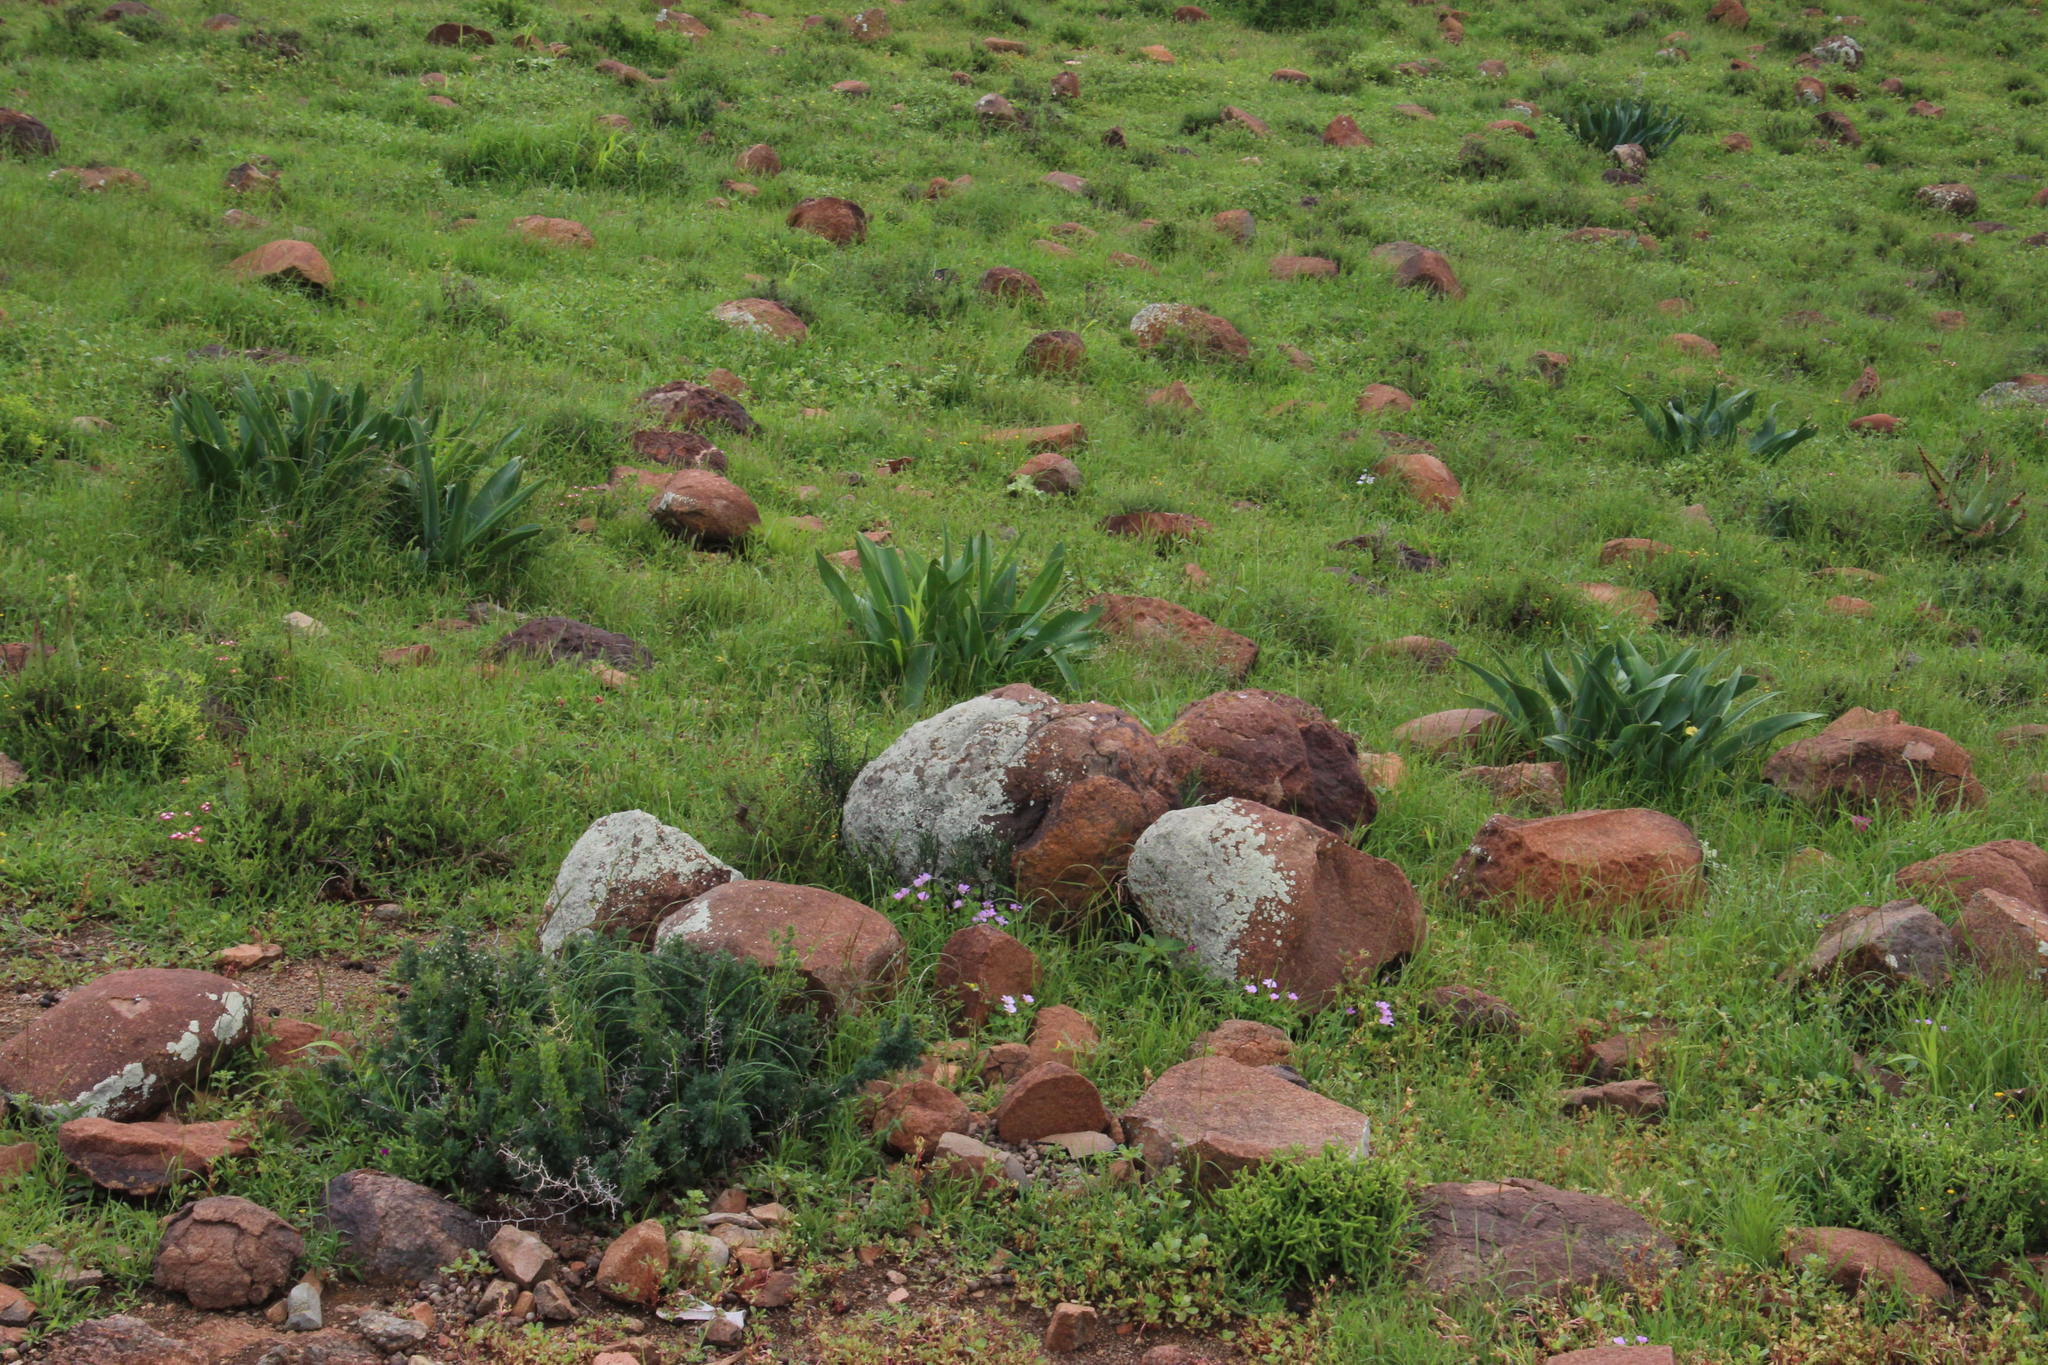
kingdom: Plantae
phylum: Tracheophyta
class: Magnoliopsida
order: Caryophyllales
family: Aizoaceae
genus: Delosperma
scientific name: Delosperma multiflorum
